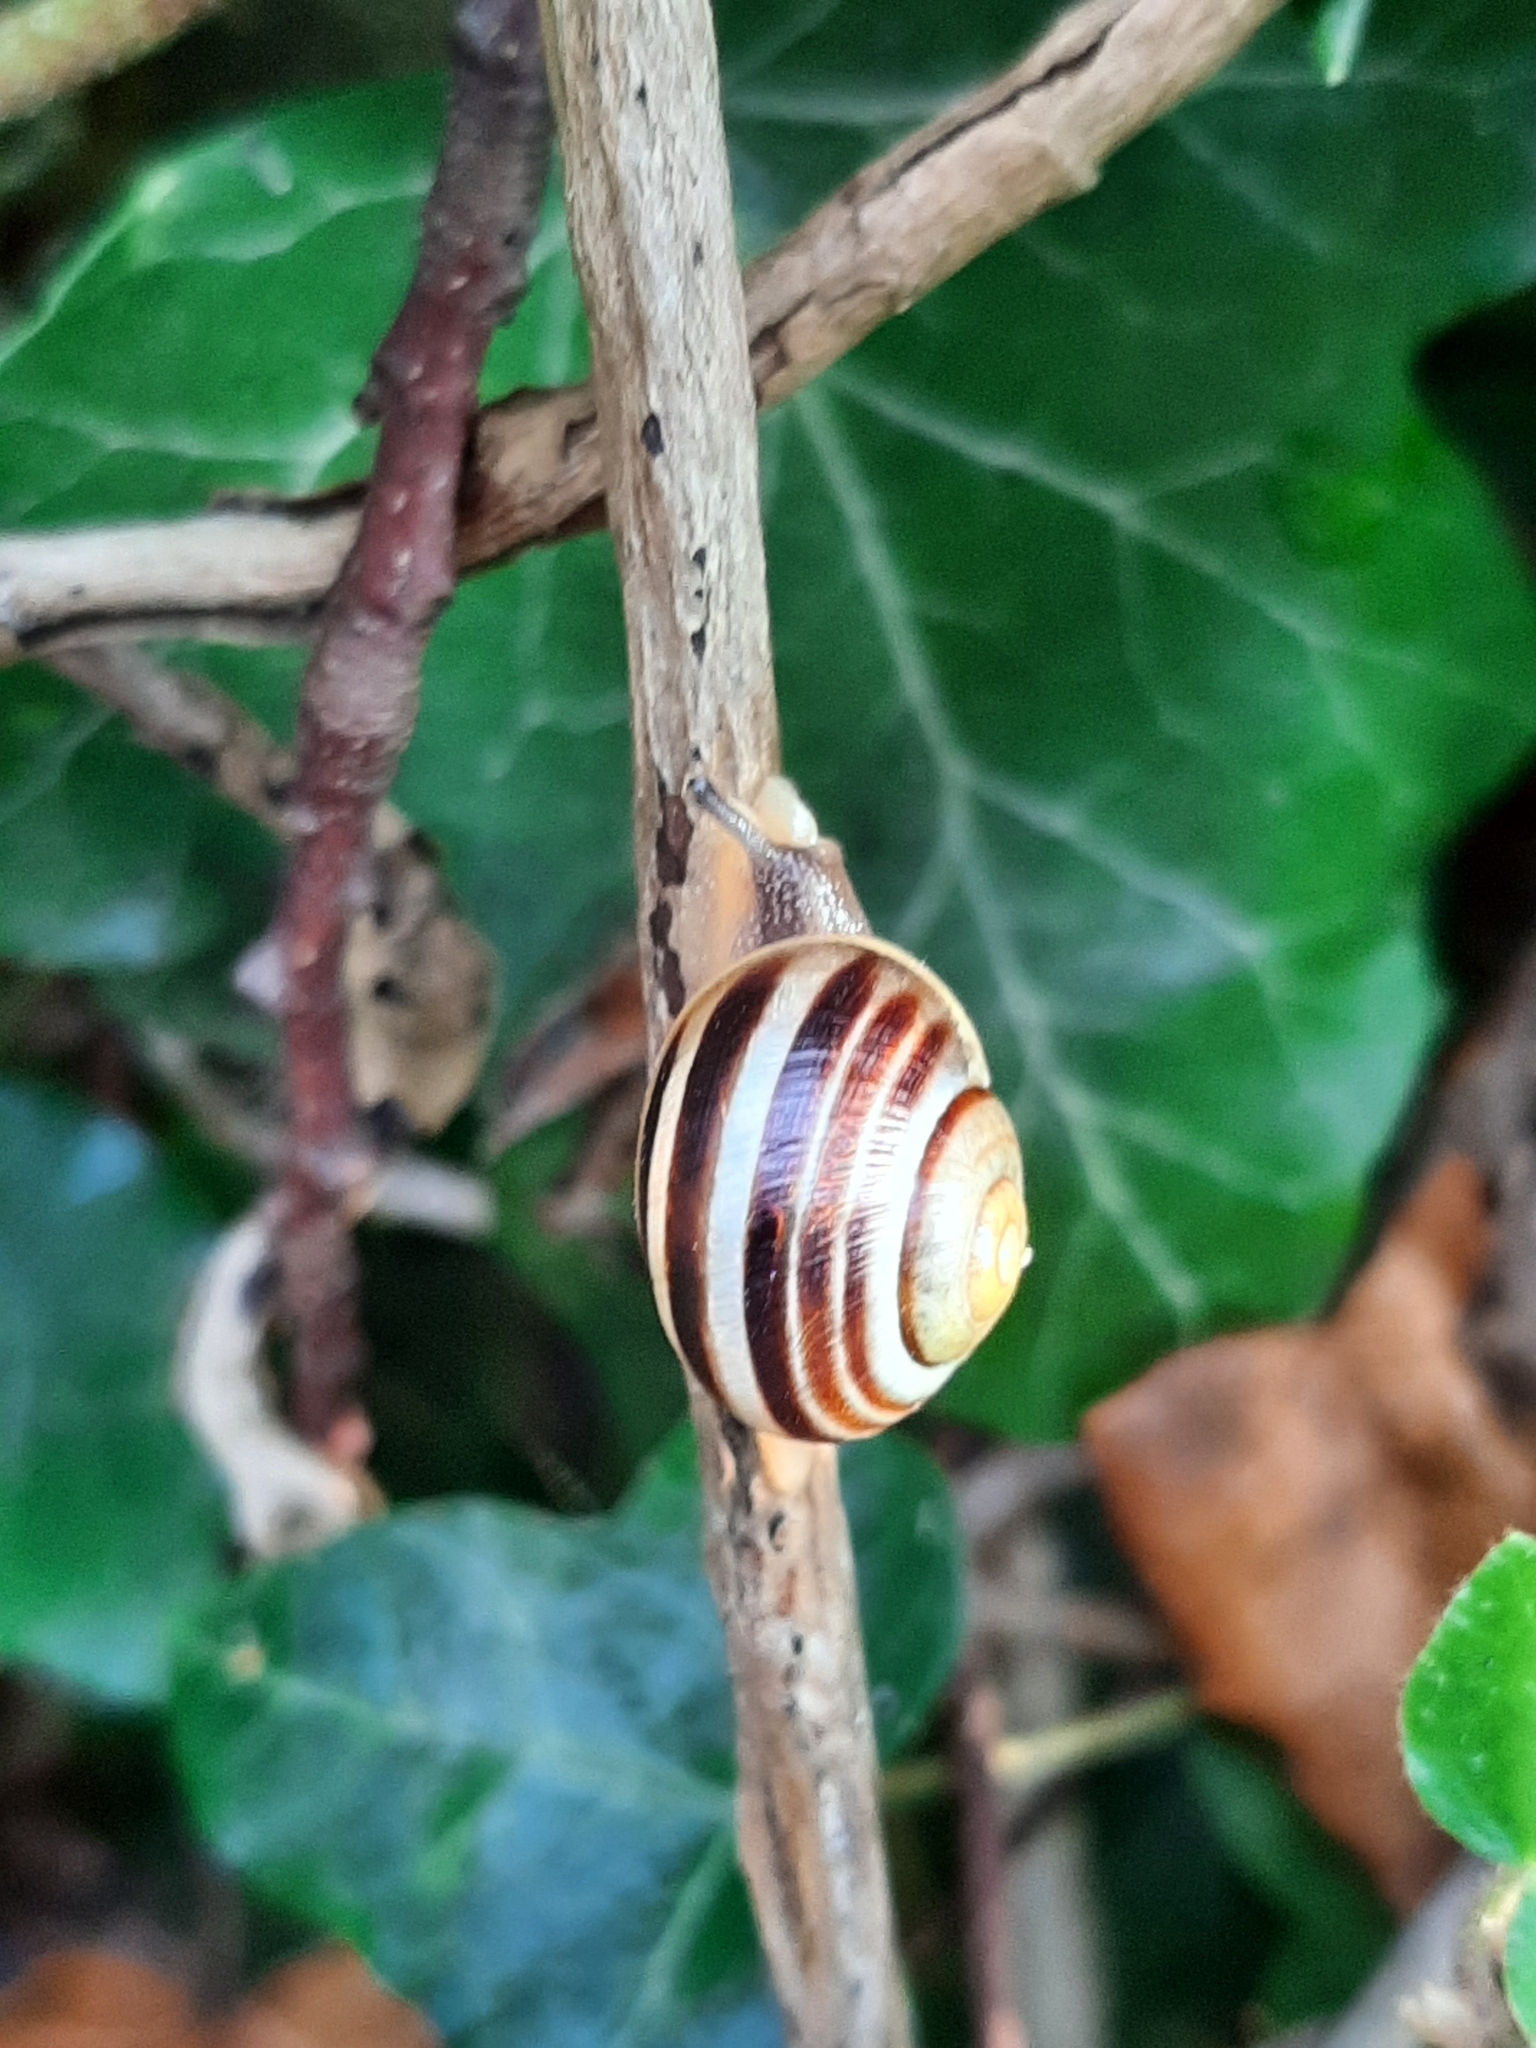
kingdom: Animalia
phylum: Mollusca
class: Gastropoda
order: Stylommatophora
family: Helicidae
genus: Cepaea
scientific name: Cepaea
